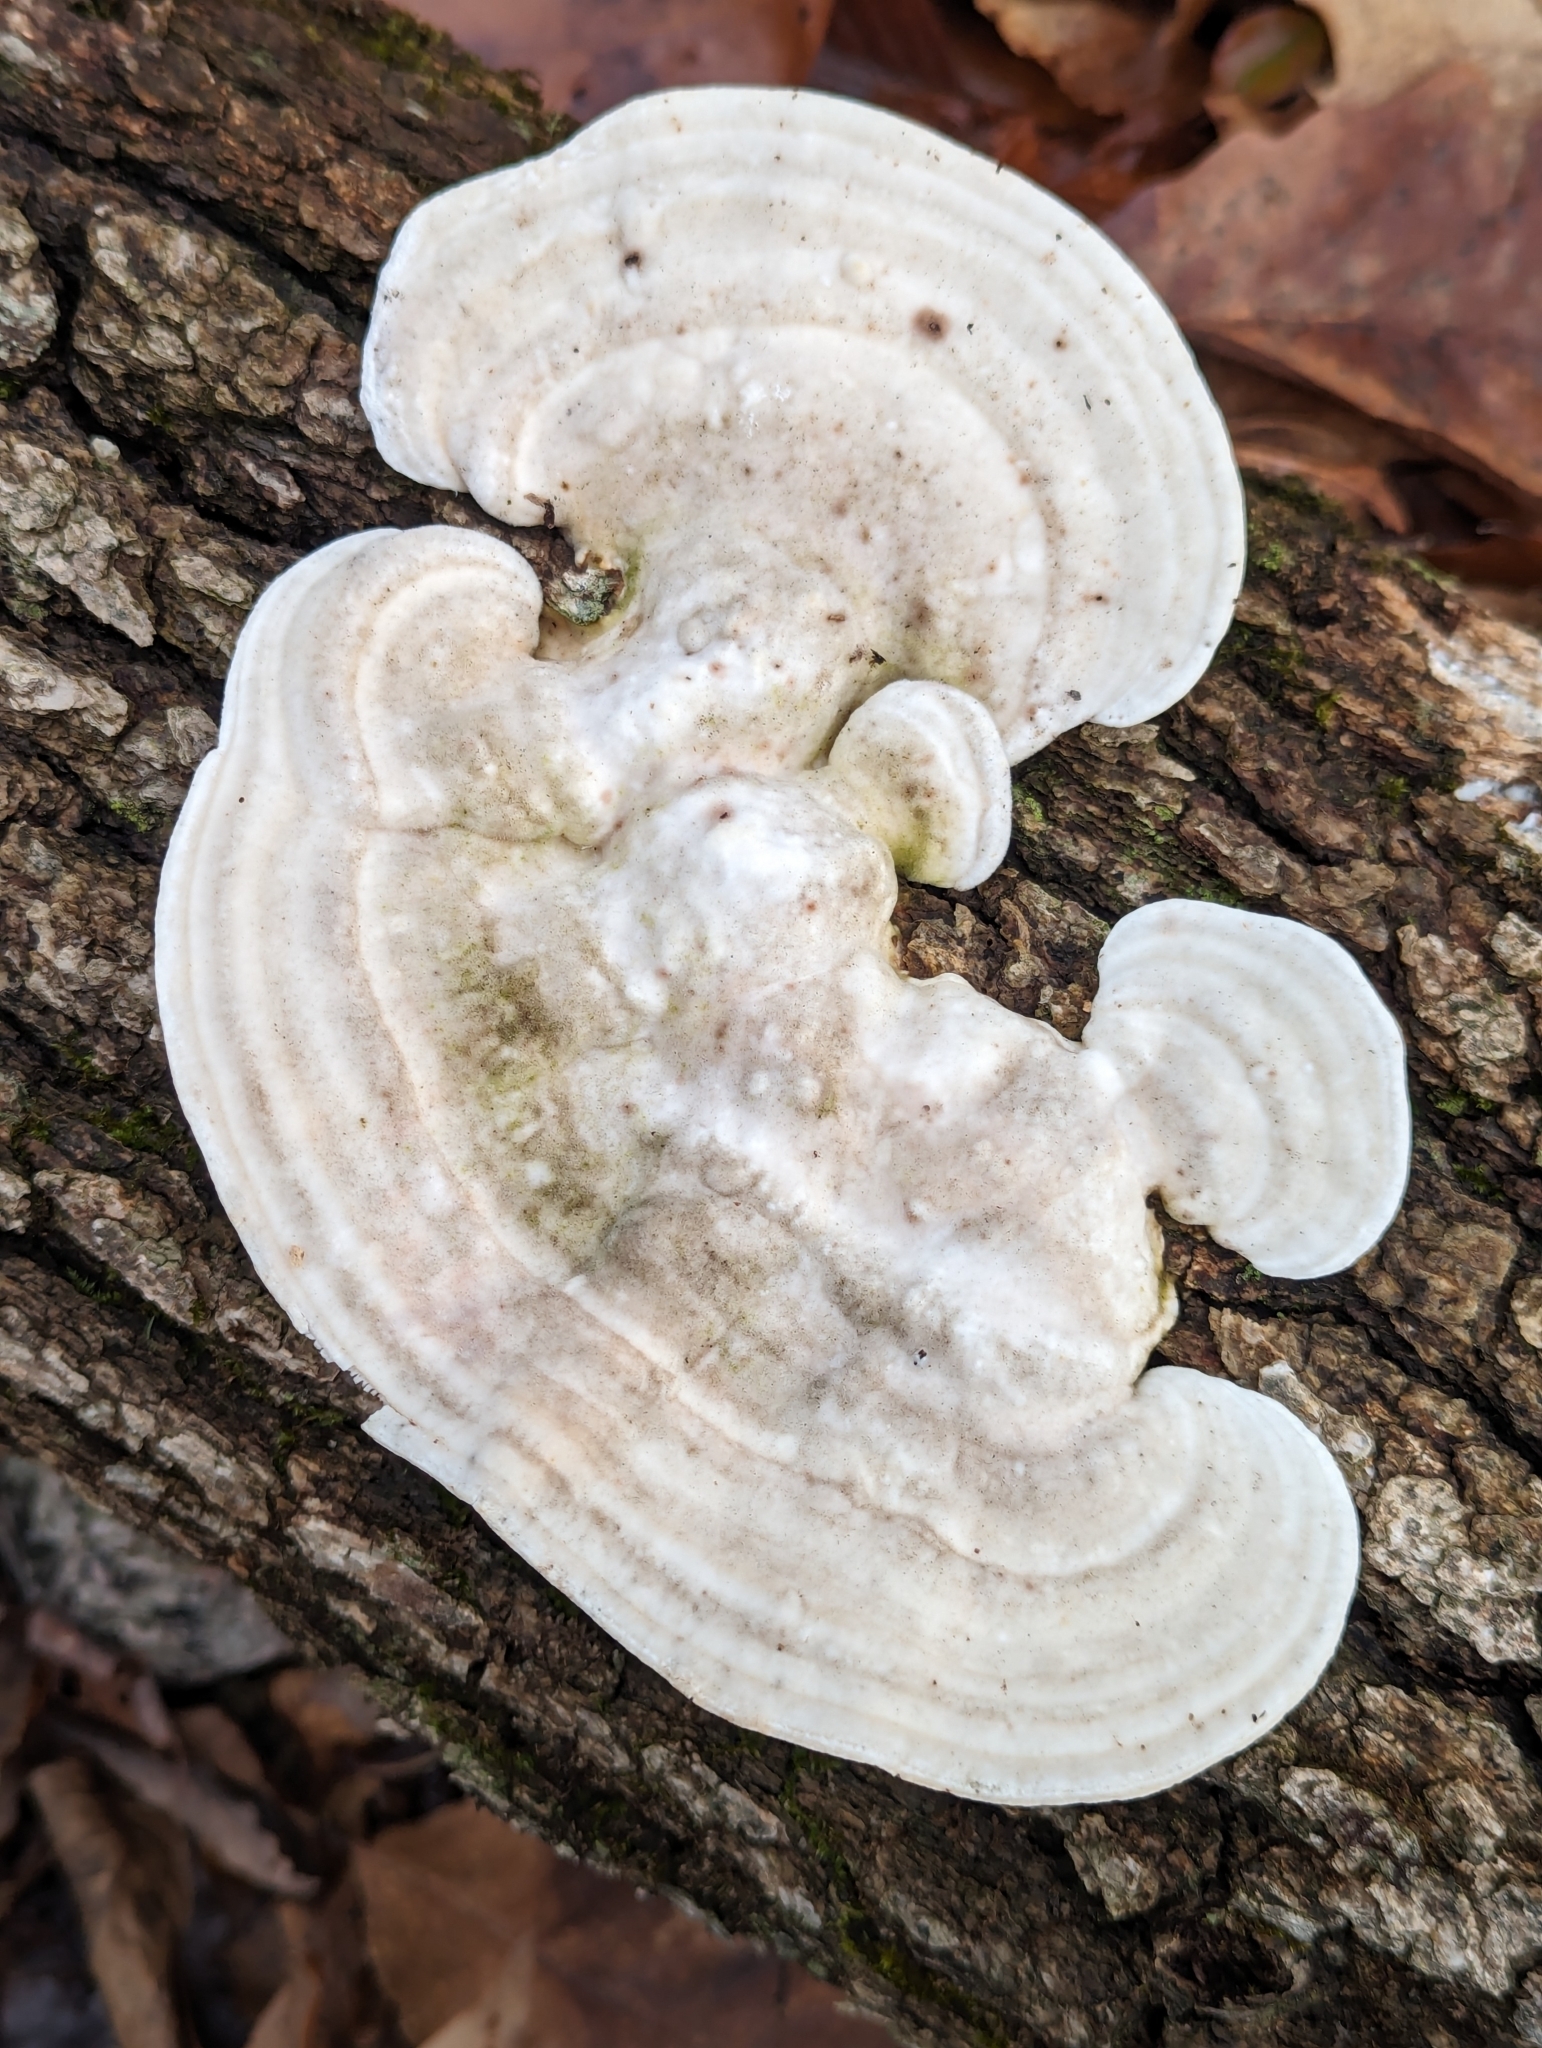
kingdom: Fungi
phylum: Basidiomycota
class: Agaricomycetes
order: Polyporales
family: Polyporaceae
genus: Trametes
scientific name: Trametes gibbosa
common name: Lumpy bracket
